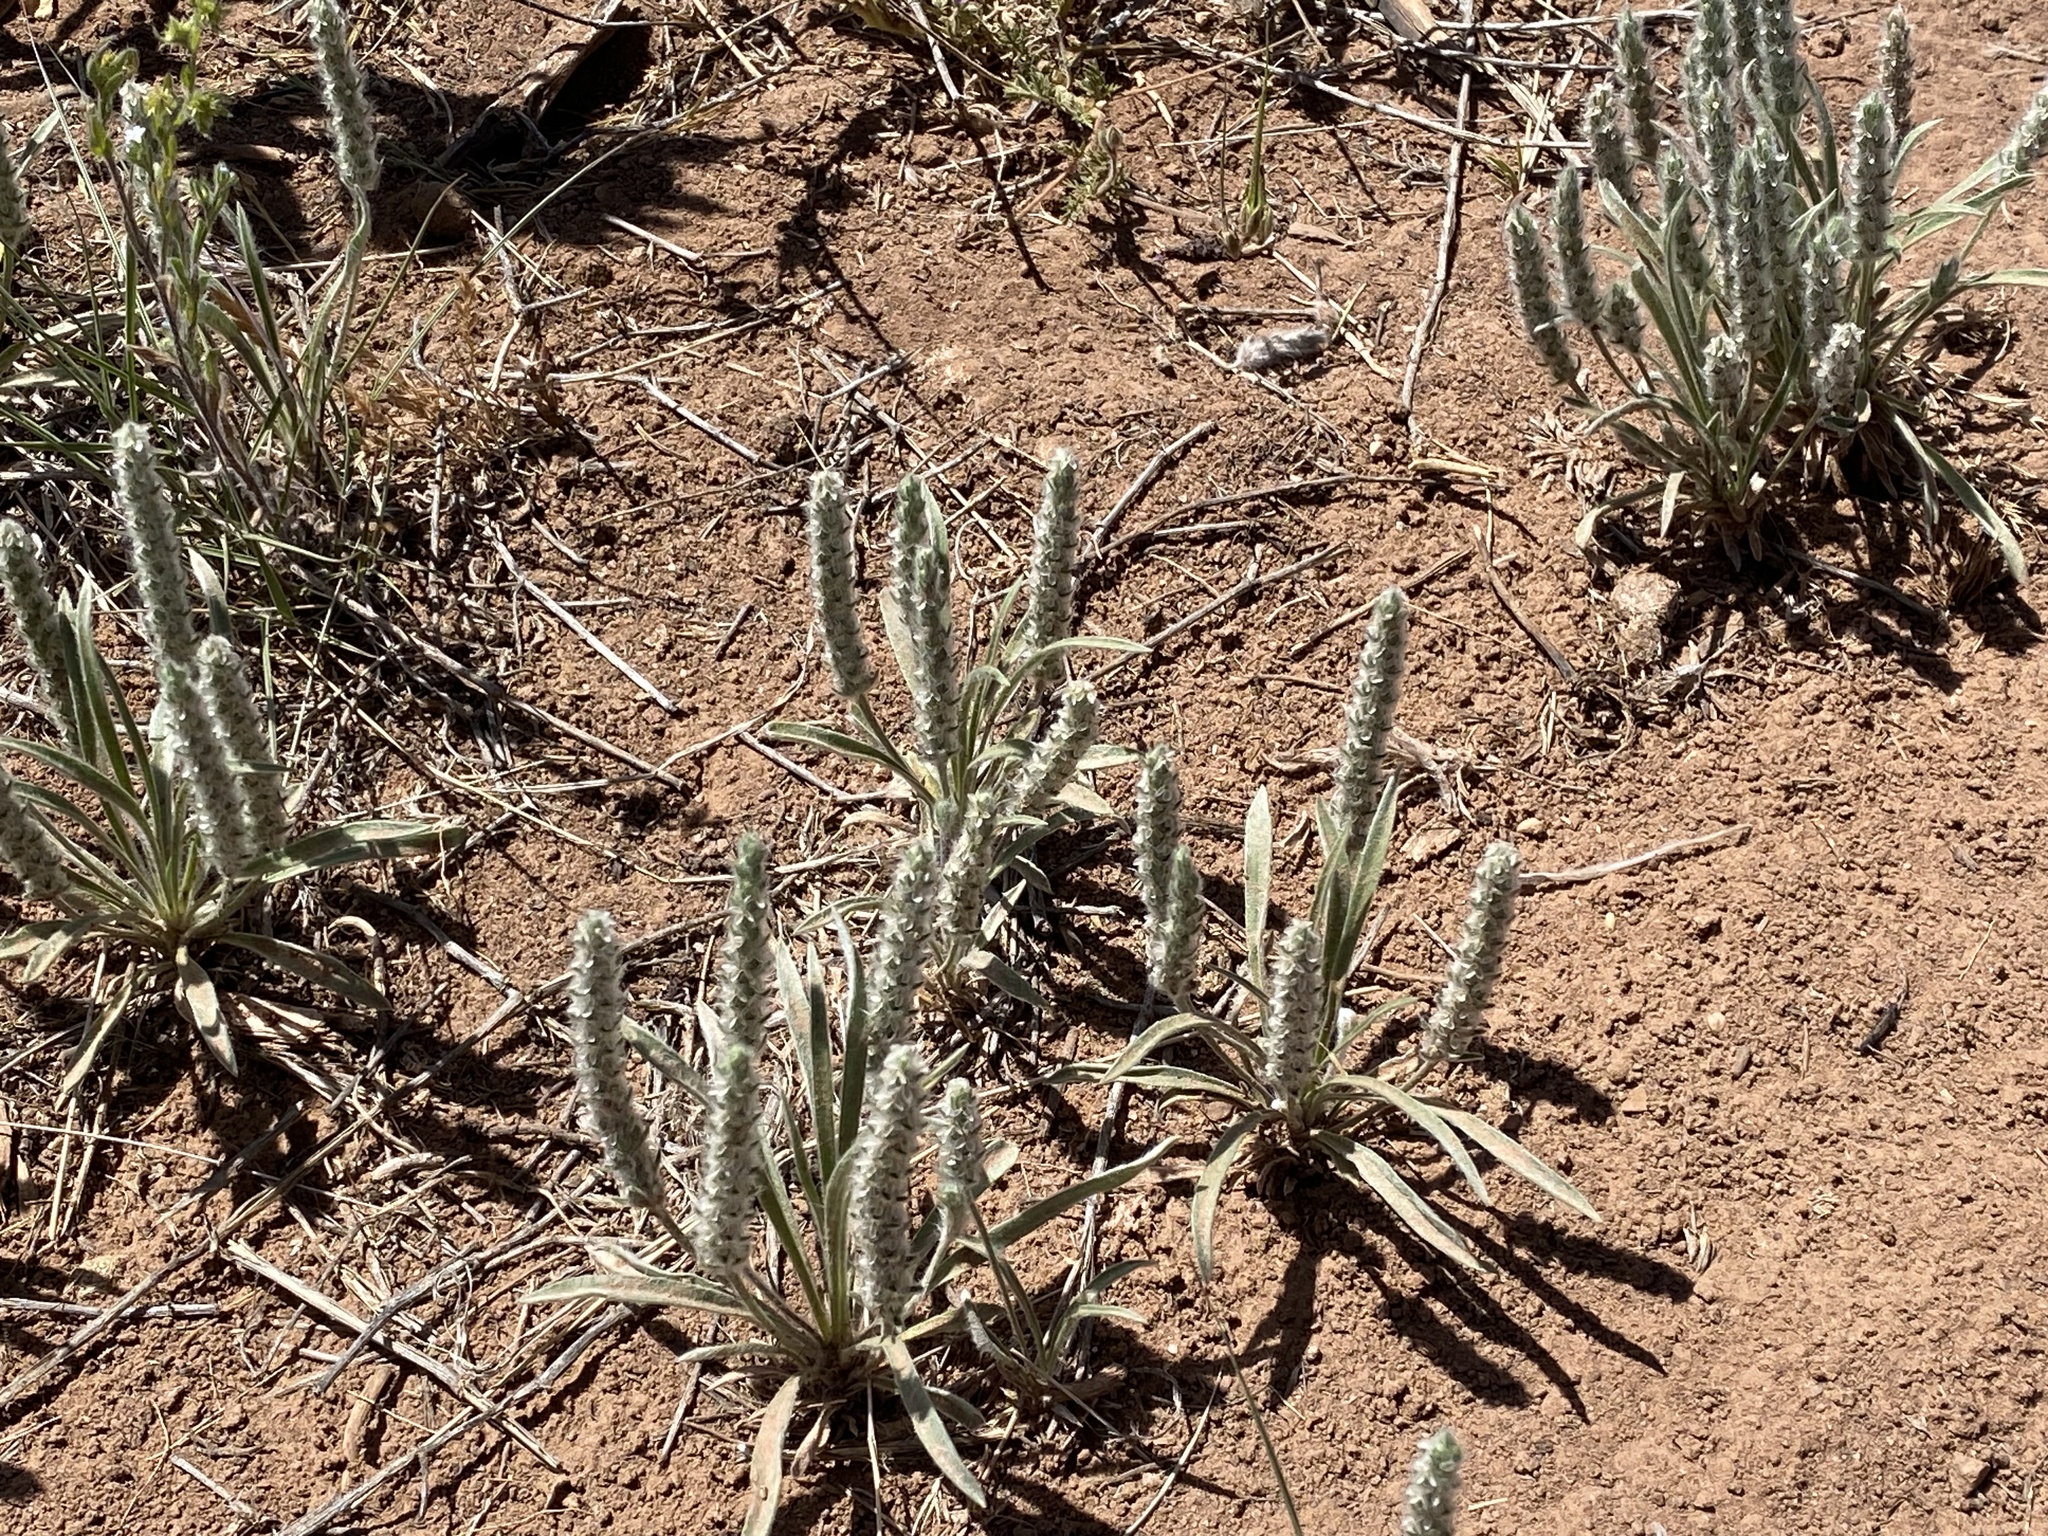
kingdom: Plantae
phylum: Tracheophyta
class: Magnoliopsida
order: Lamiales
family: Plantaginaceae
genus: Plantago
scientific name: Plantago patagonica
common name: Patagonia indian-wheat
